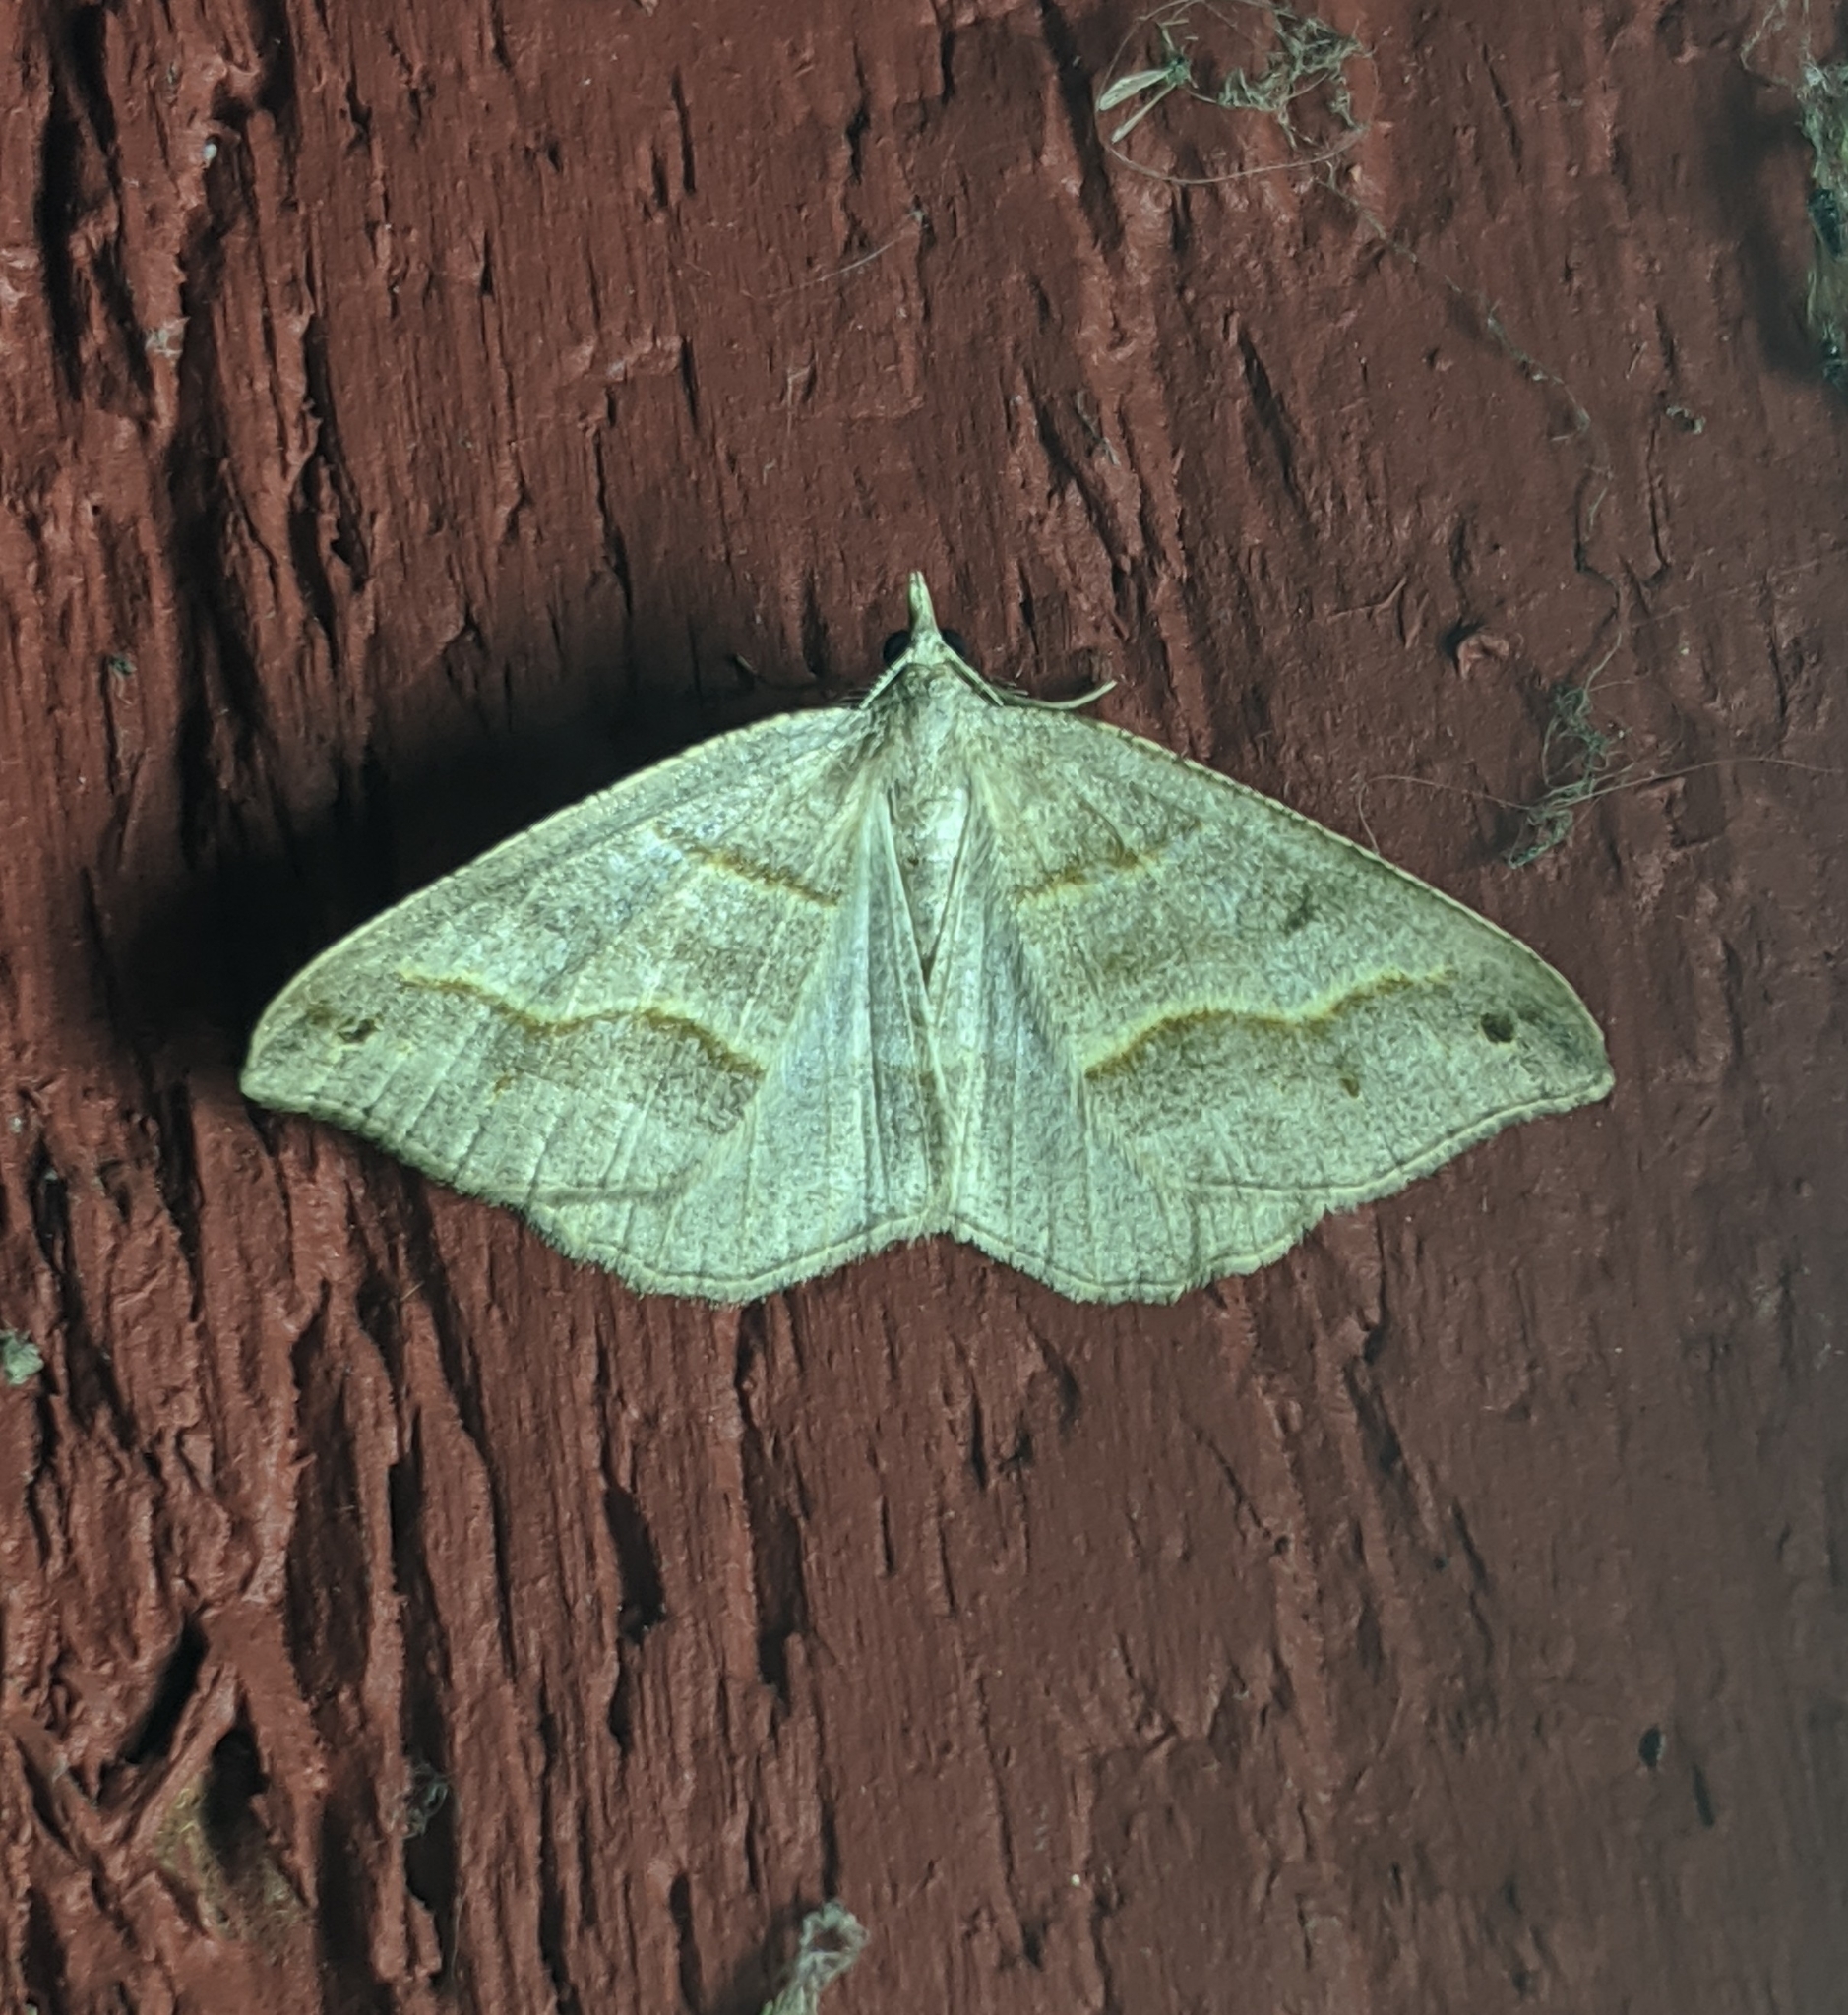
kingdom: Animalia
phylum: Arthropoda
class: Insecta
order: Lepidoptera
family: Geometridae
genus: Macaria
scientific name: Macaria lorquinaria
